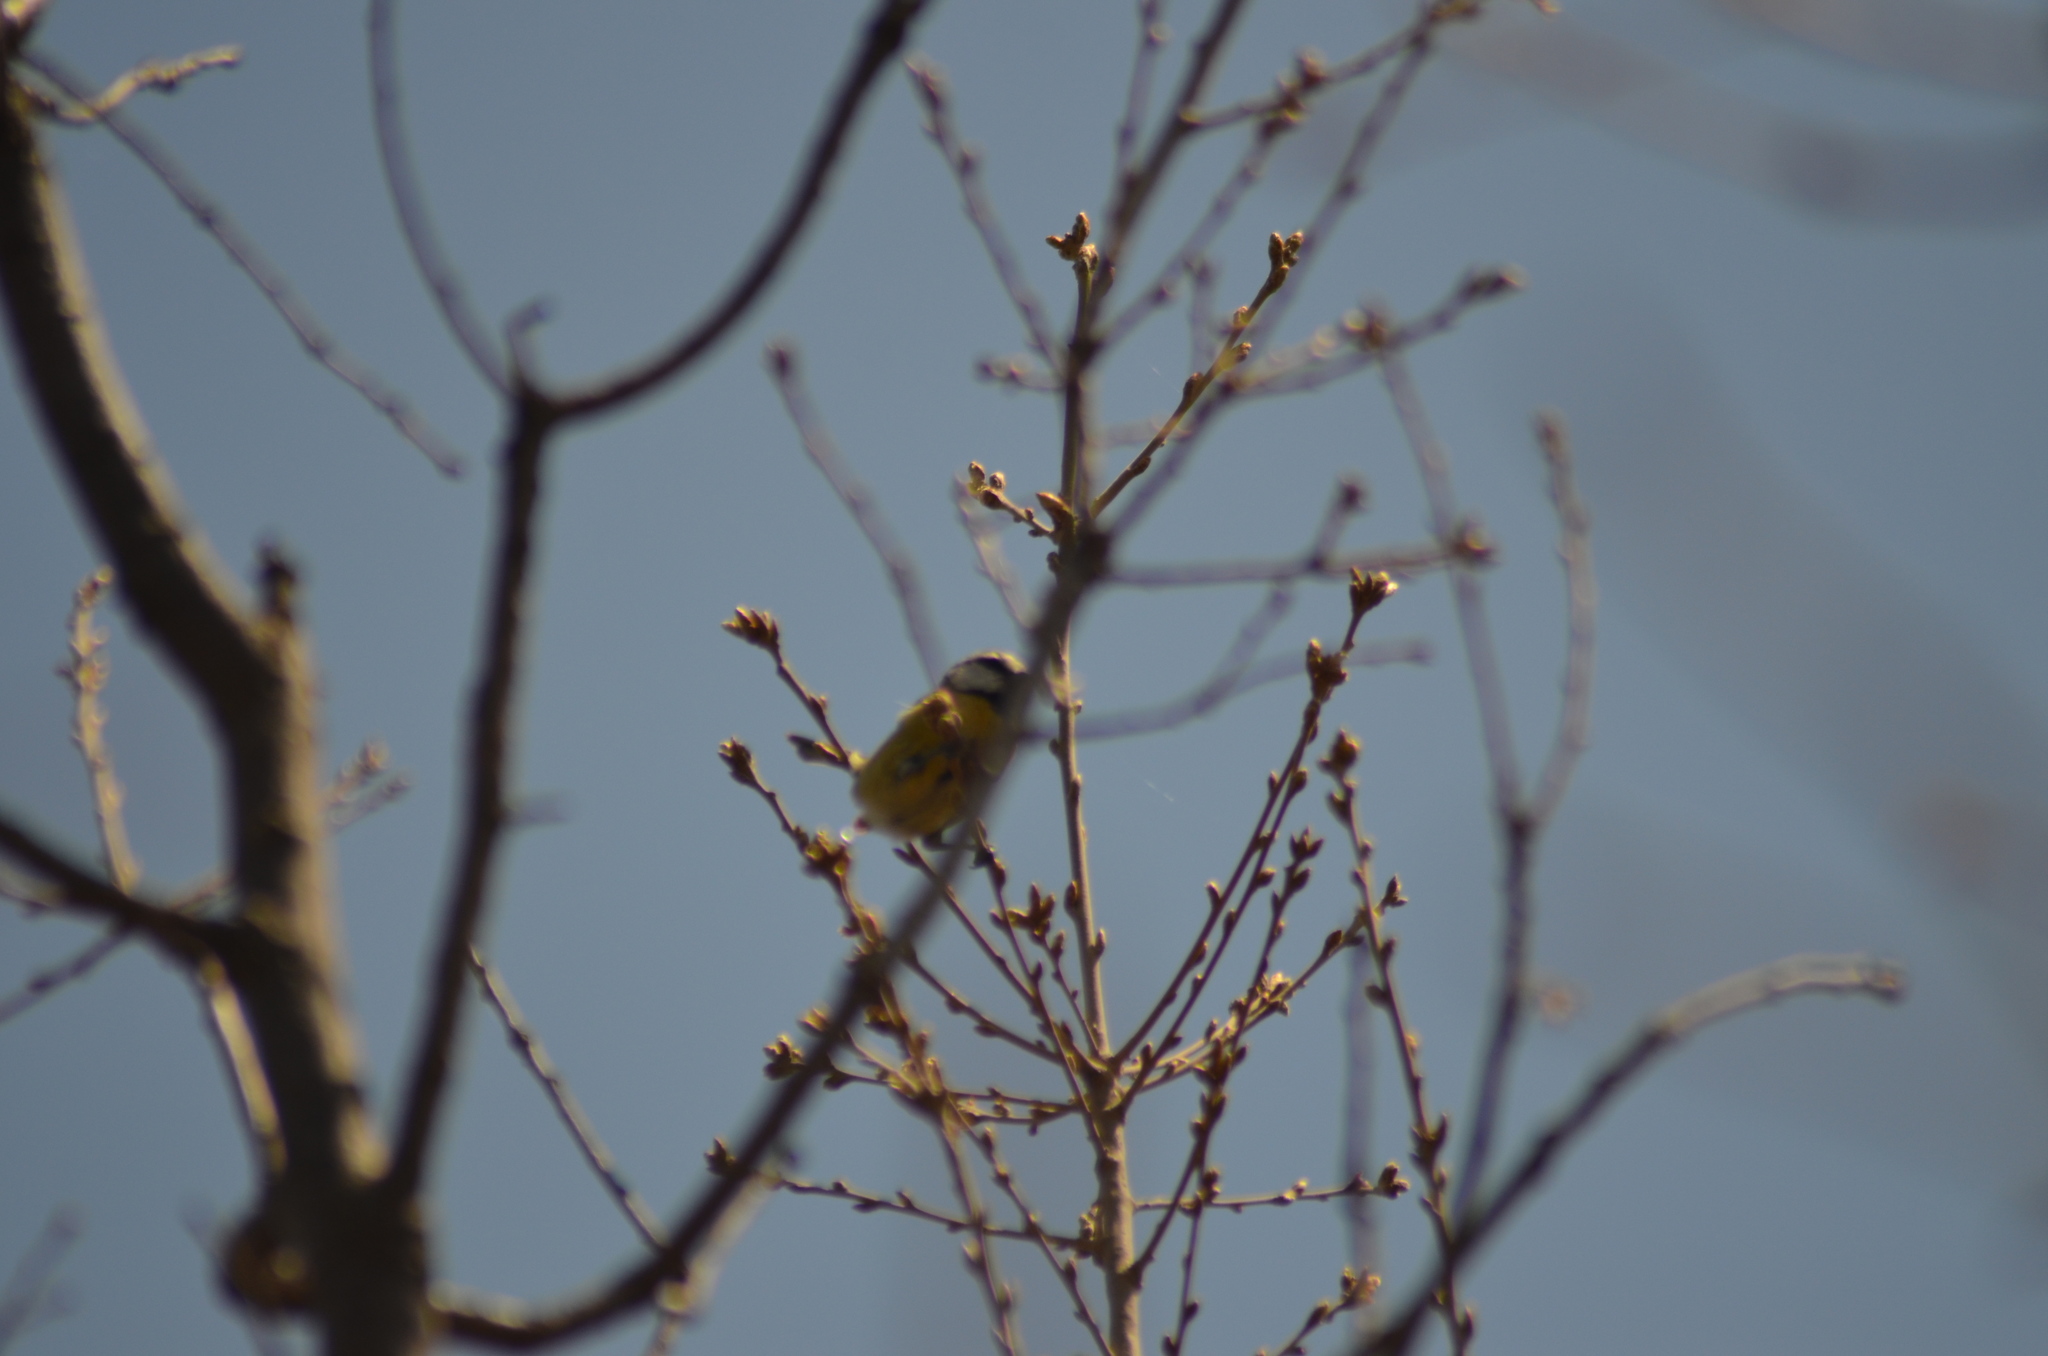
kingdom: Animalia
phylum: Chordata
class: Aves
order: Passeriformes
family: Paridae
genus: Cyanistes
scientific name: Cyanistes caeruleus
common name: Eurasian blue tit
